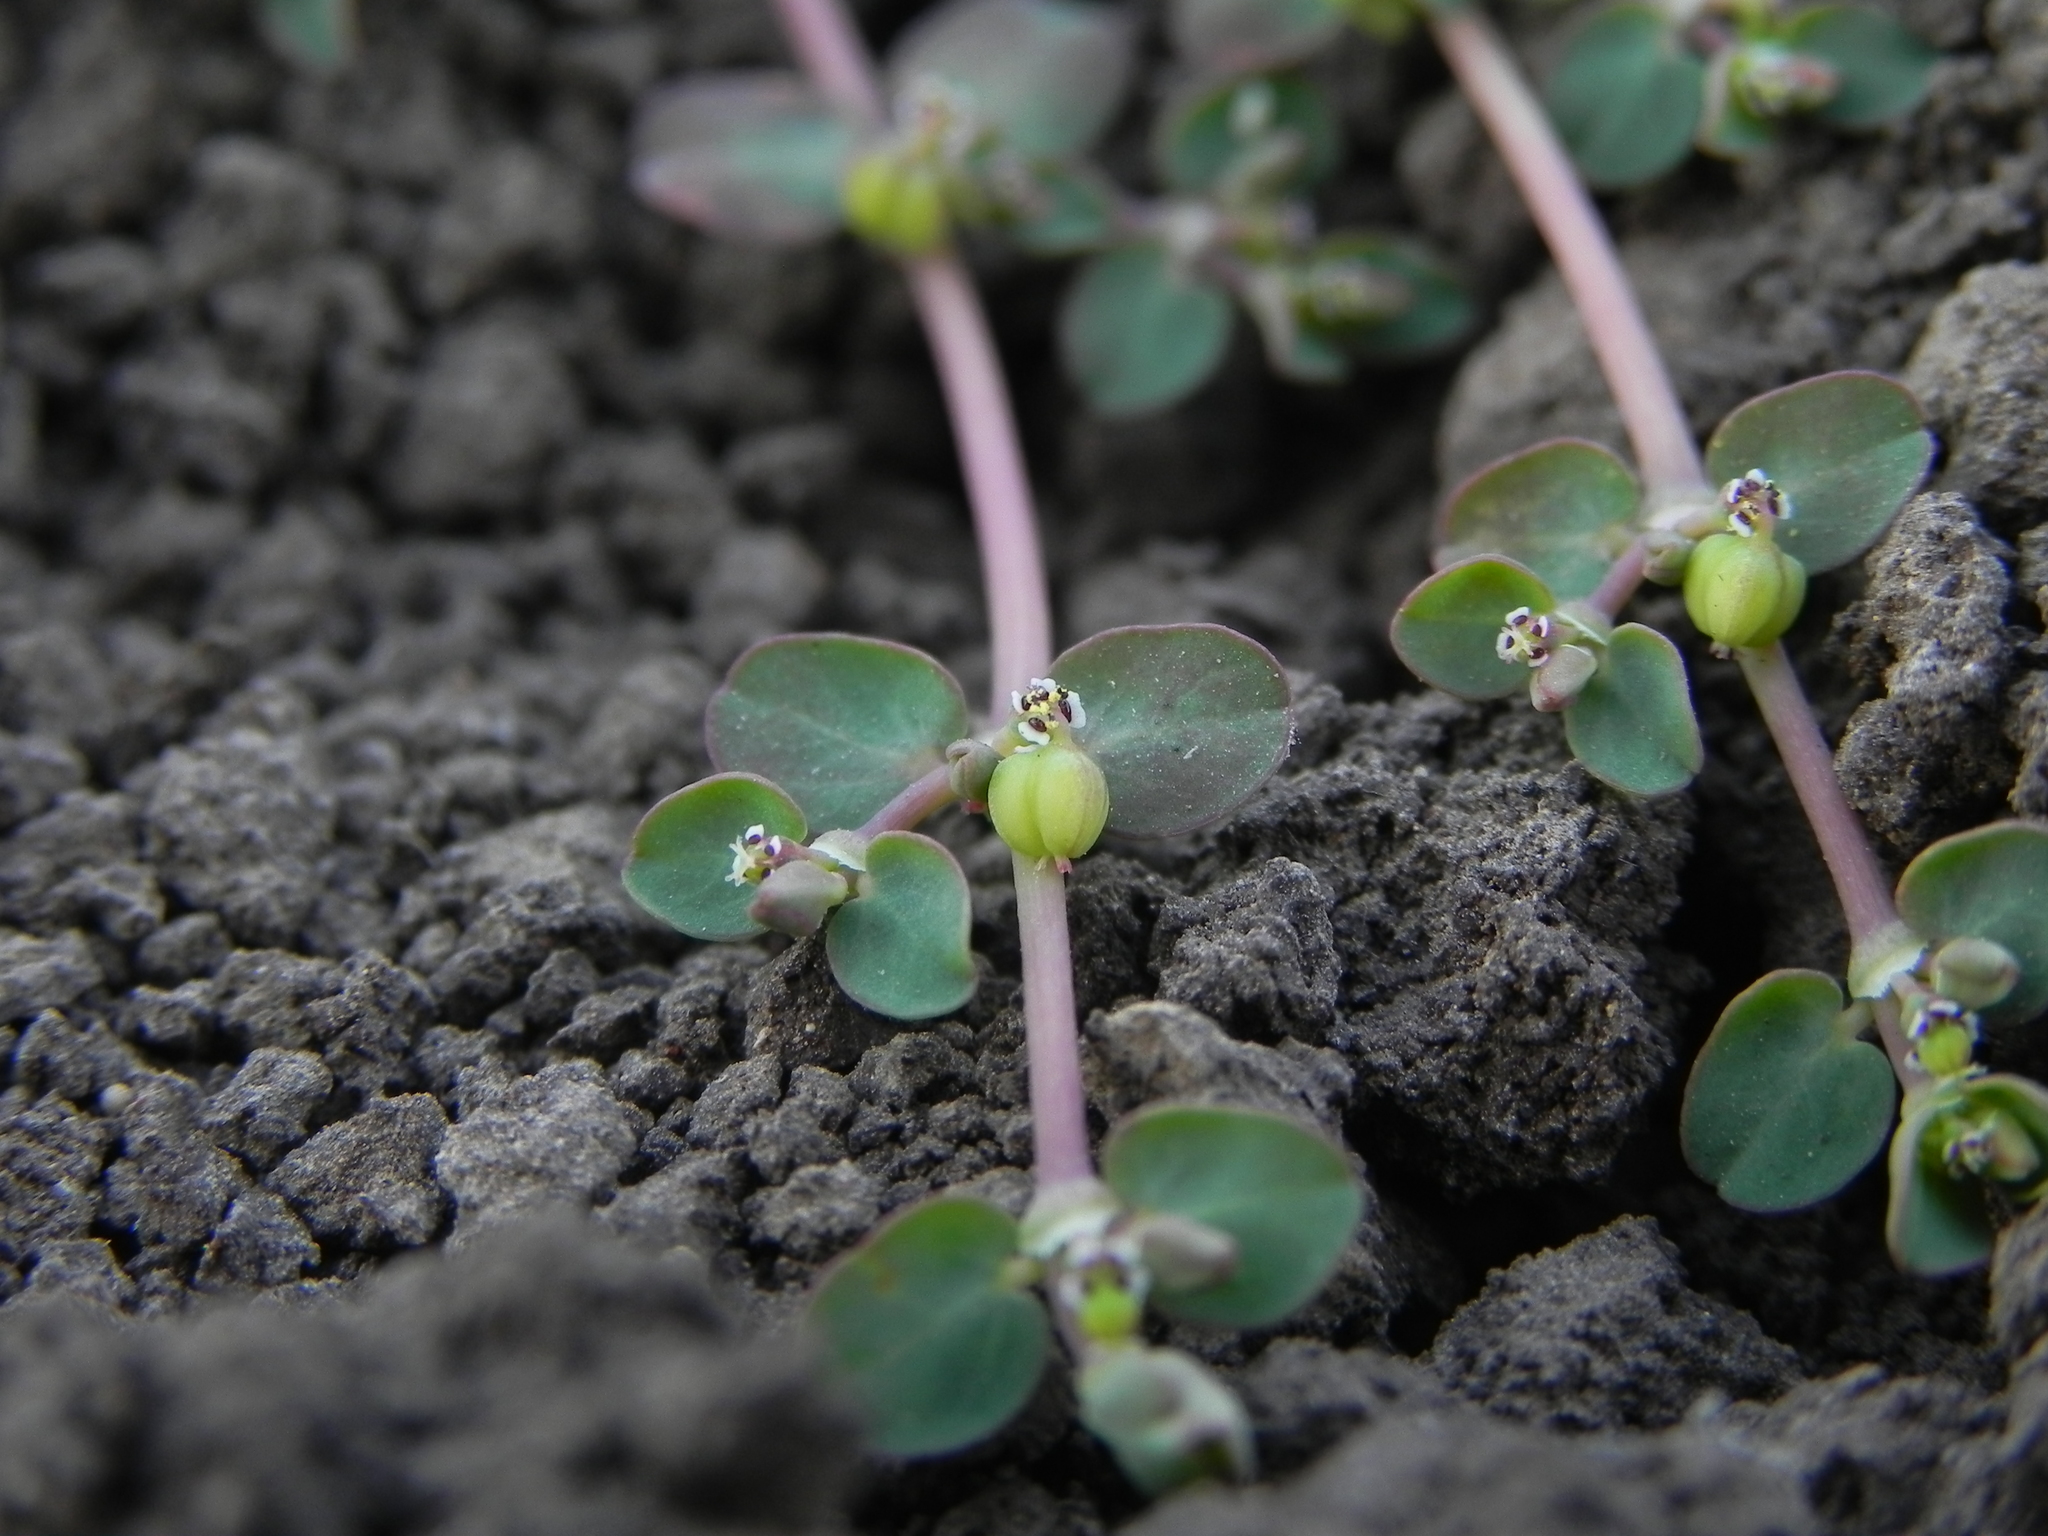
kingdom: Plantae
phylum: Tracheophyta
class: Magnoliopsida
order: Malpighiales
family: Euphorbiaceae
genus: Euphorbia
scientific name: Euphorbia serpens
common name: Matted sandmat
